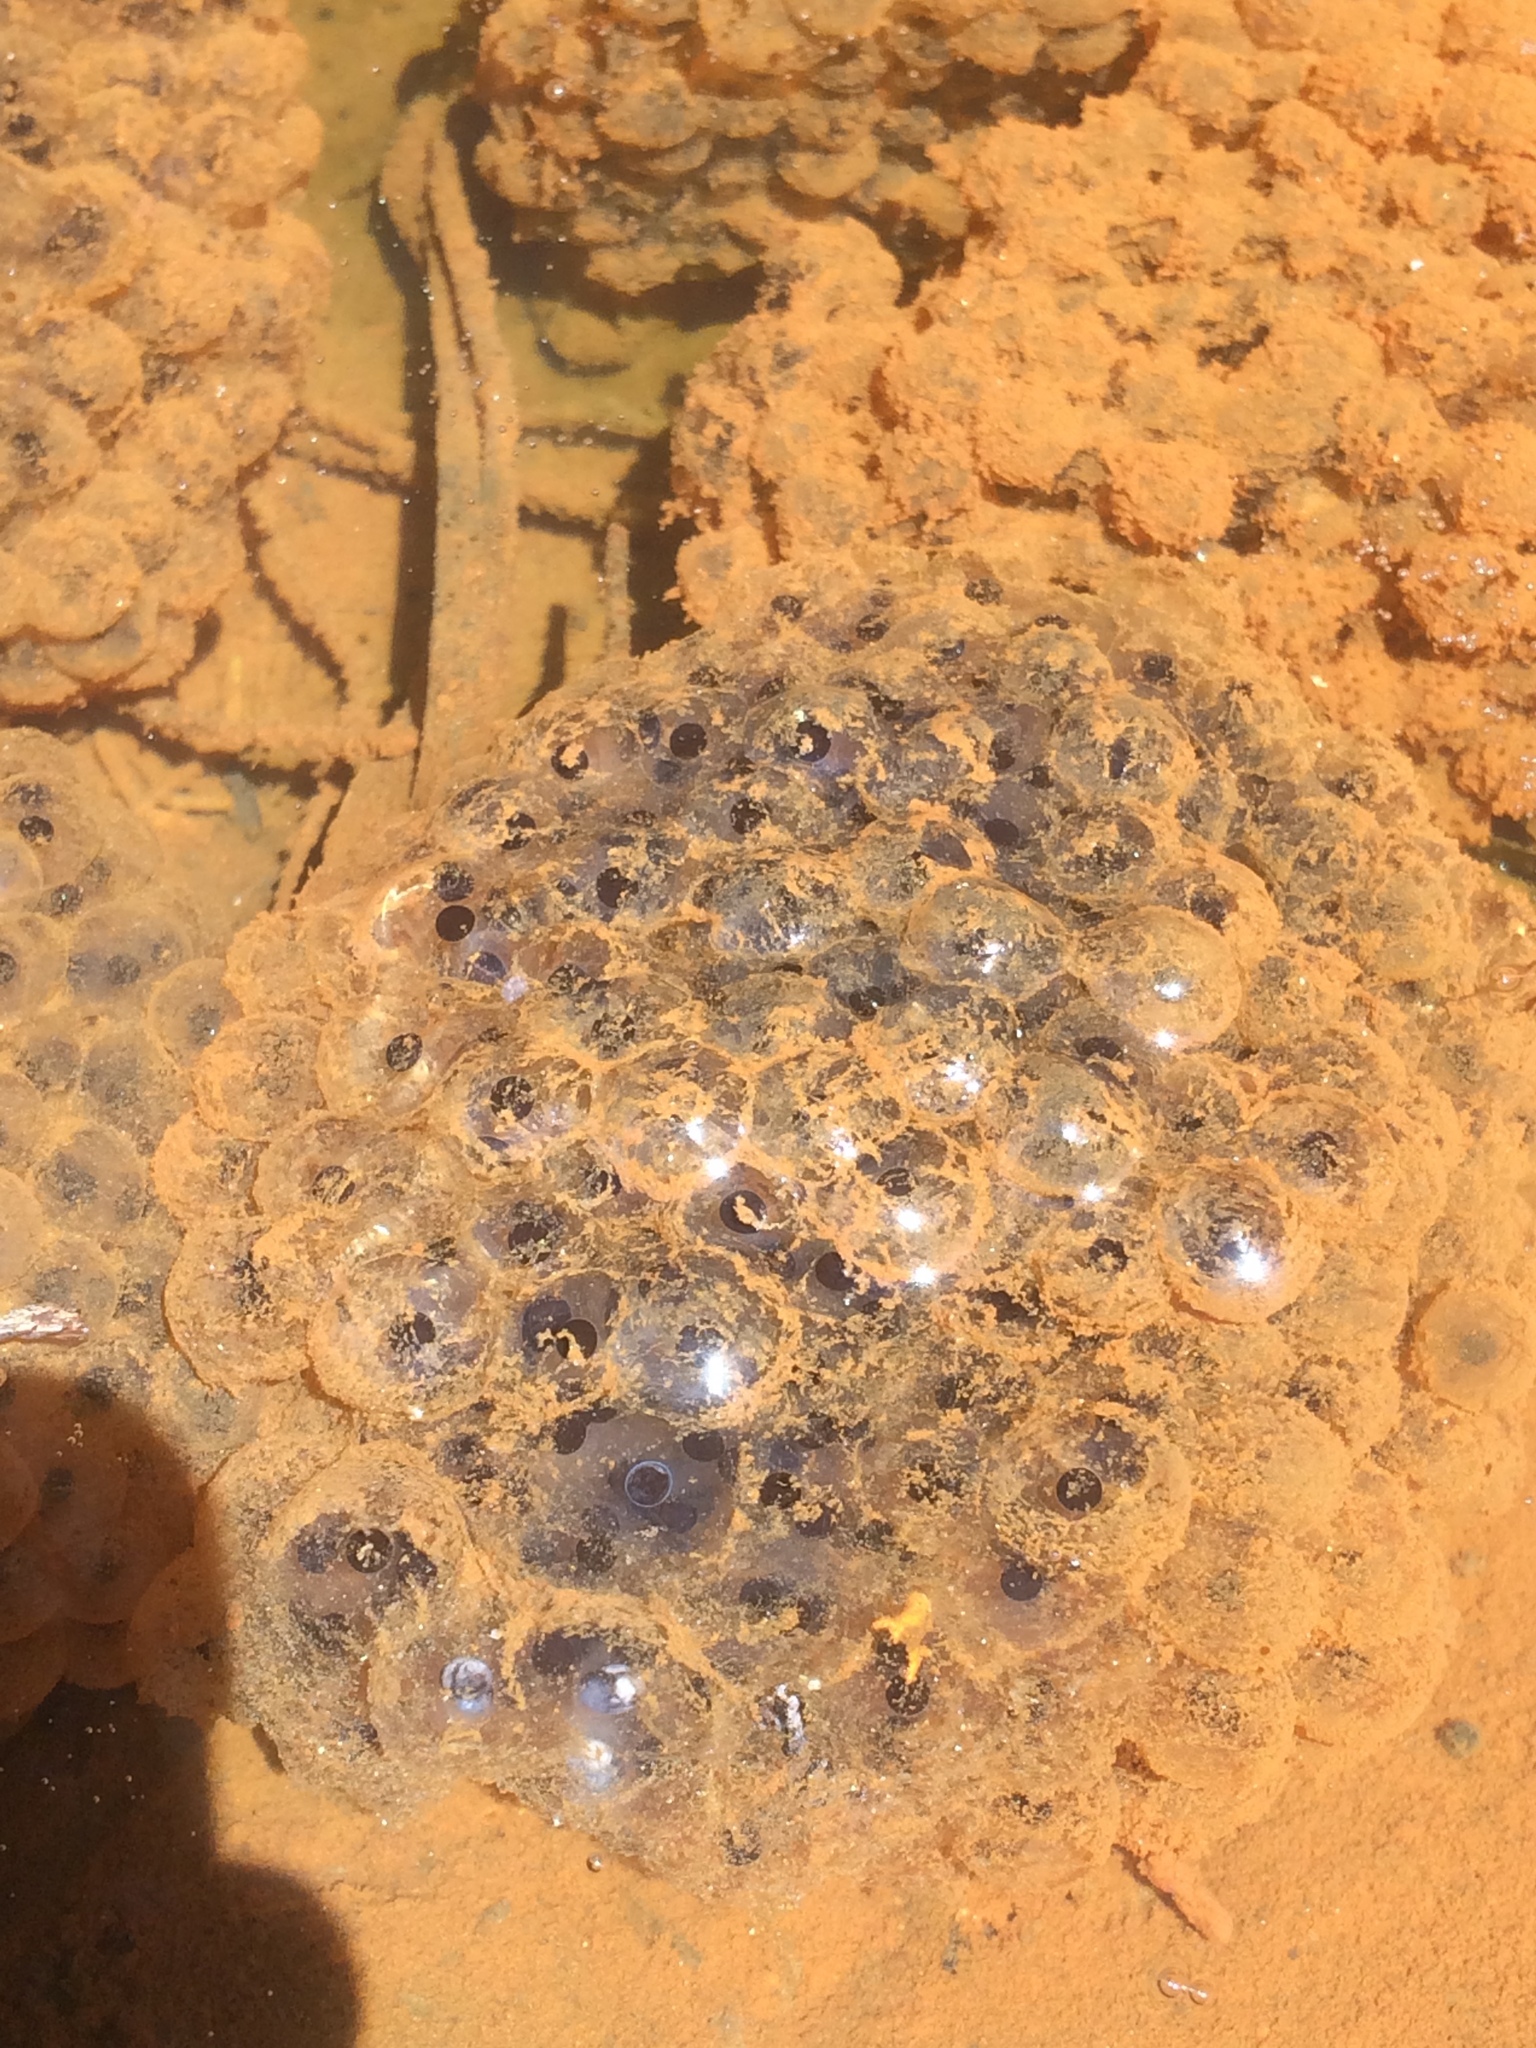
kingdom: Animalia
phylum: Chordata
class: Amphibia
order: Anura
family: Ranidae
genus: Lithobates
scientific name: Lithobates sylvaticus
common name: Wood frog
